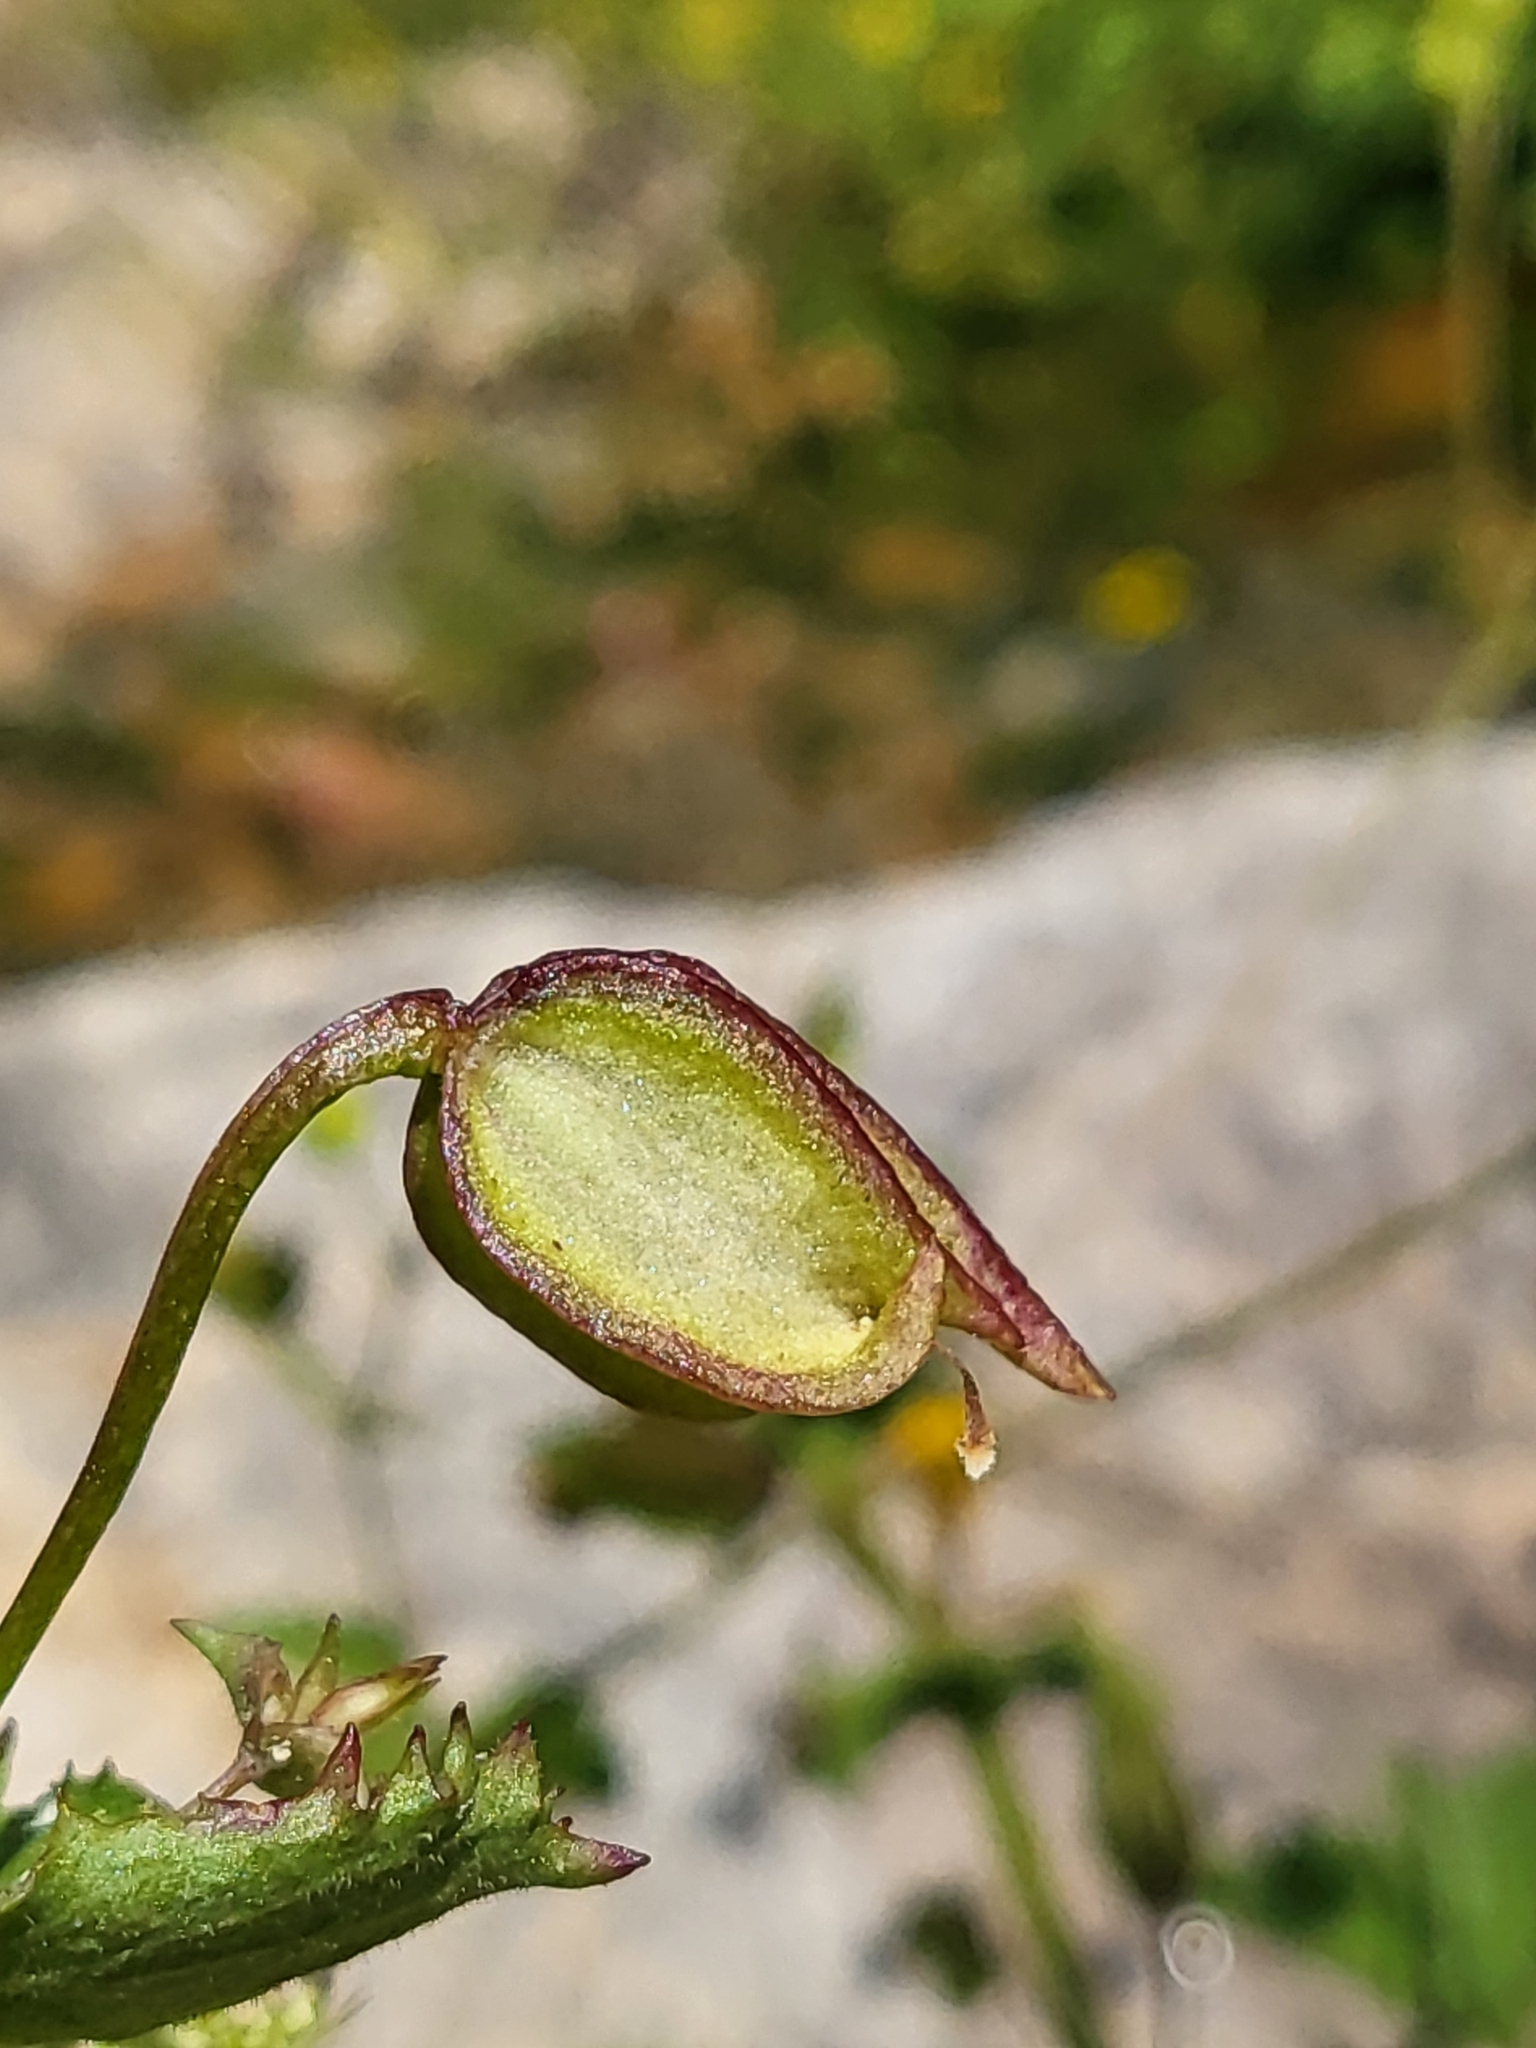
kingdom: Plantae
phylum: Tracheophyta
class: Magnoliopsida
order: Lamiales
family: Phrymaceae
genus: Erythranthe
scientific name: Erythranthe nasuta
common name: Sooke monkeyflower
